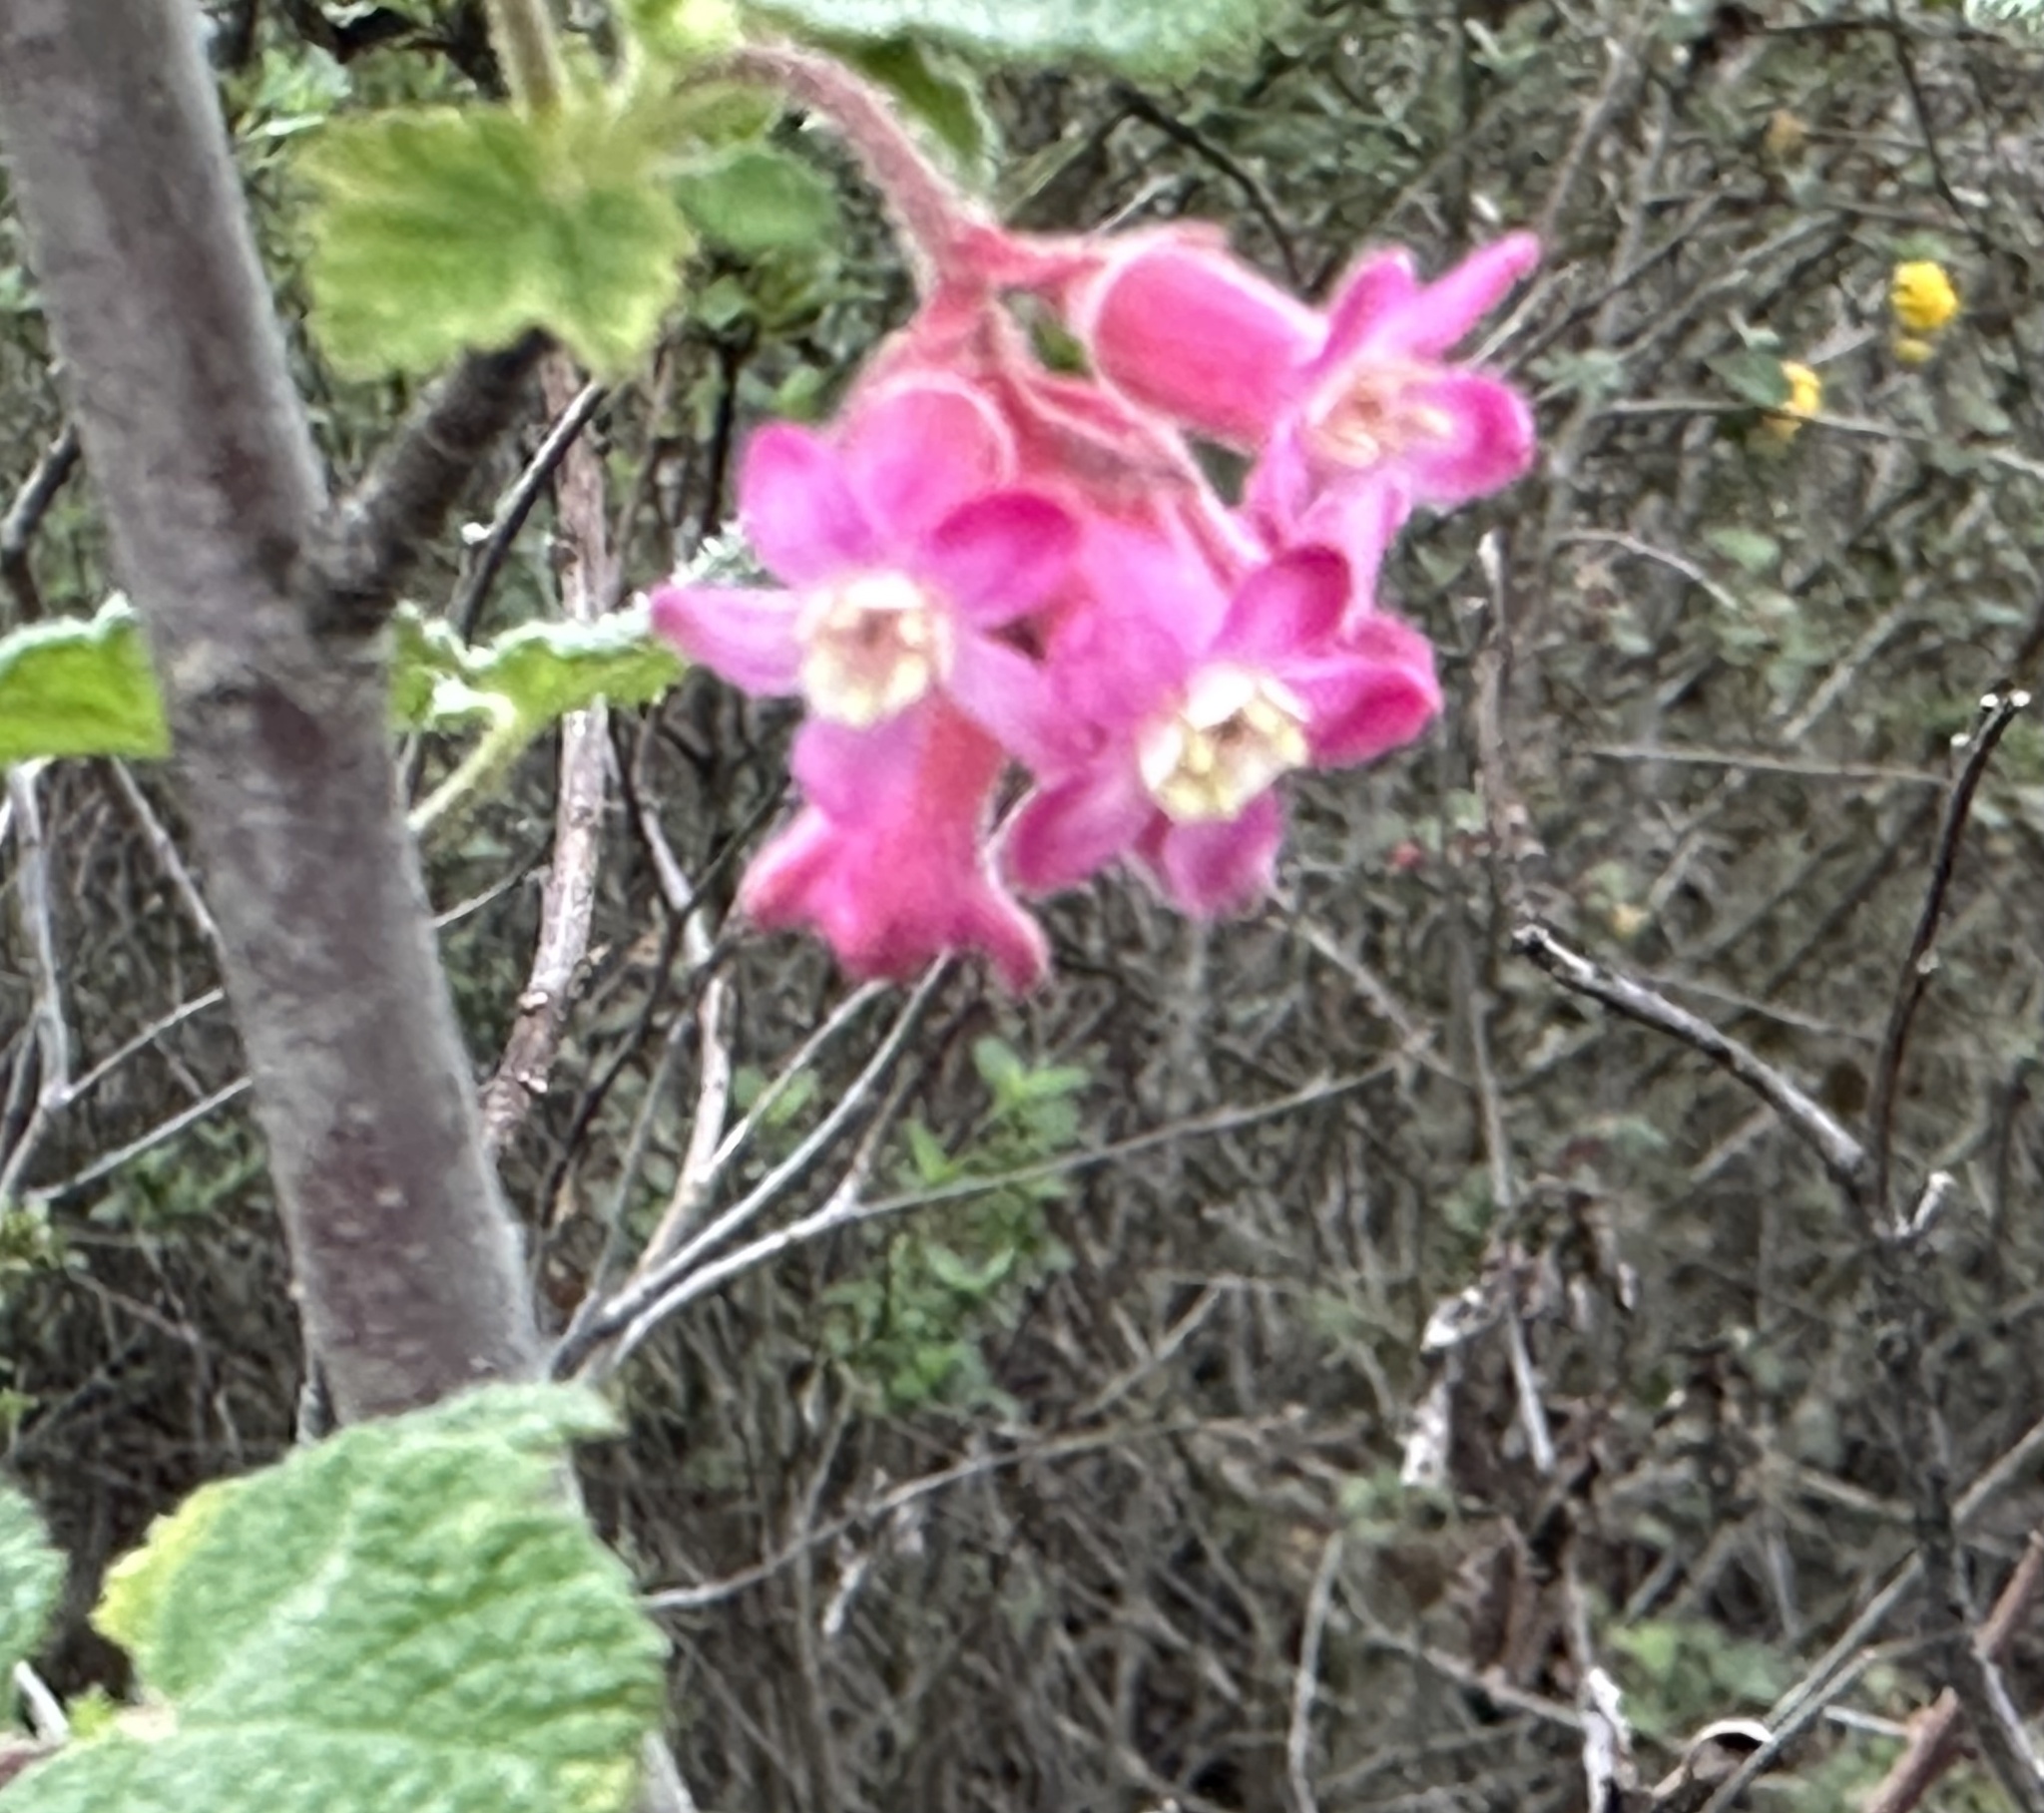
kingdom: Plantae
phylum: Tracheophyta
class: Magnoliopsida
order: Saxifragales
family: Grossulariaceae
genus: Ribes
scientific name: Ribes malvaceum
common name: Chaparral currant
